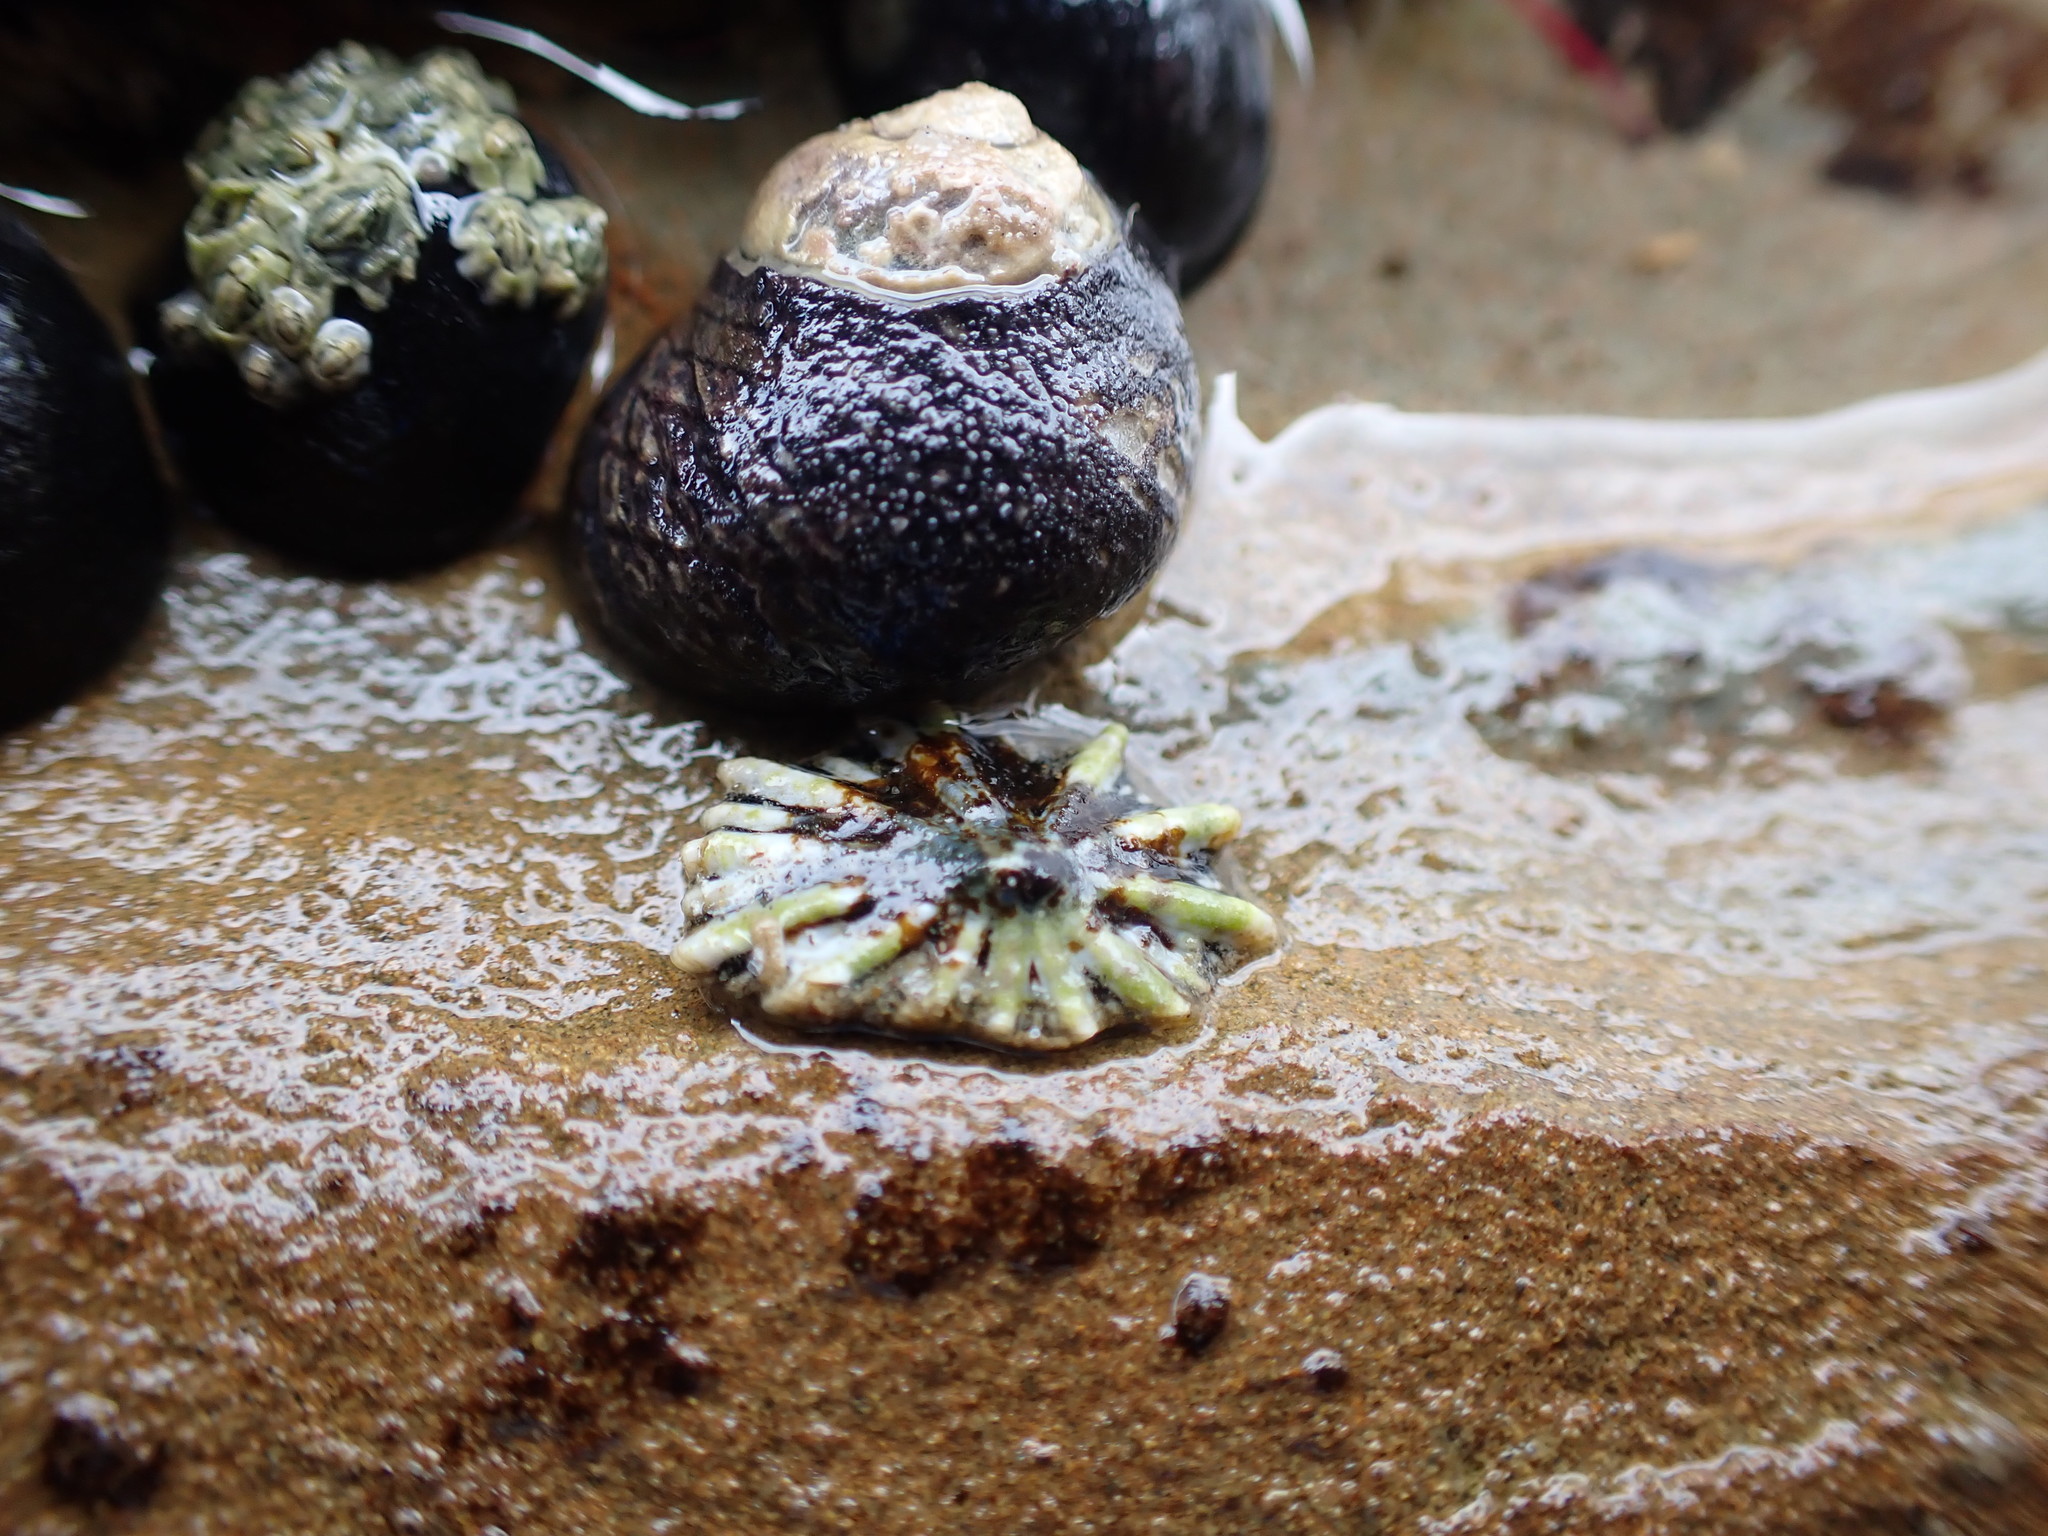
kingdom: Animalia
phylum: Mollusca
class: Gastropoda
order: Siphonariida
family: Siphonariidae
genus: Siphonaria
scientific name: Siphonaria australis
